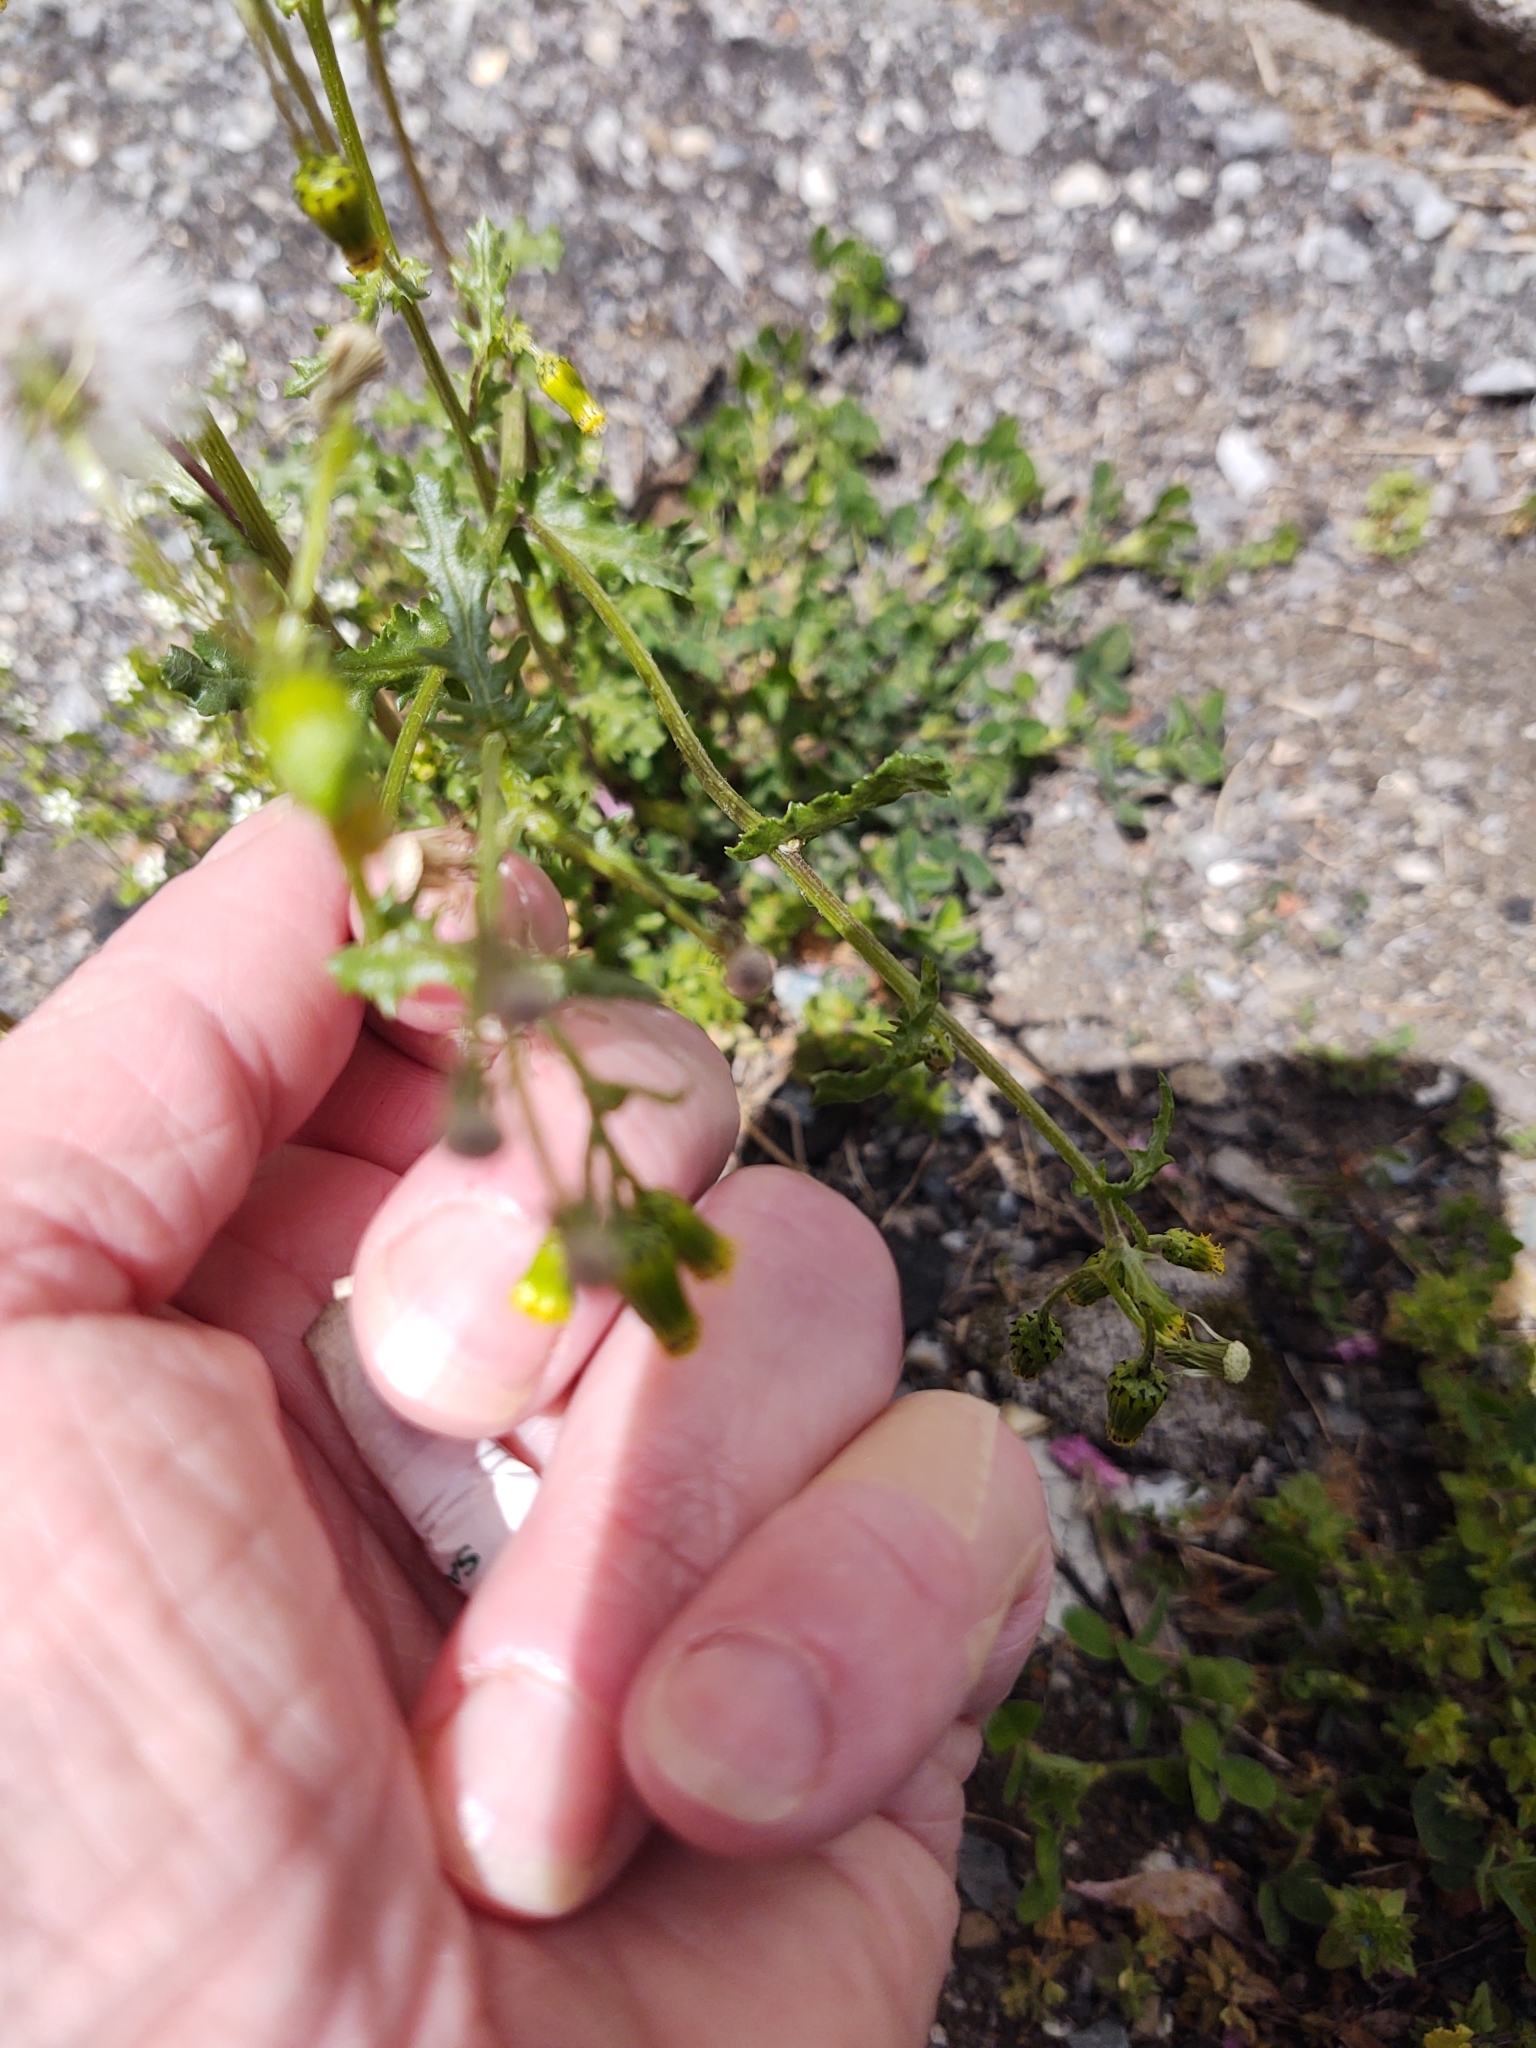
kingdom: Plantae
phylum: Tracheophyta
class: Magnoliopsida
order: Asterales
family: Asteraceae
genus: Senecio
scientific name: Senecio vulgaris
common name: Old-man-in-the-spring
